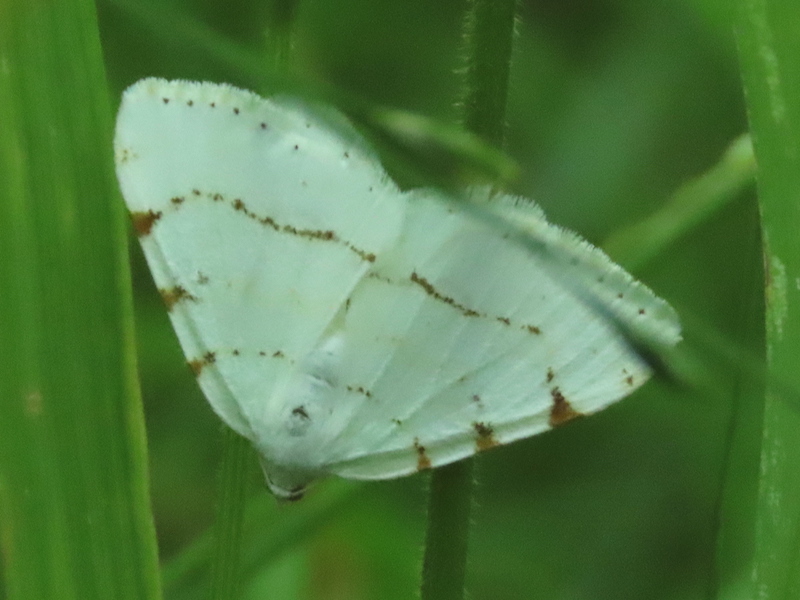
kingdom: Animalia
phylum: Arthropoda
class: Insecta
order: Lepidoptera
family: Geometridae
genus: Macaria
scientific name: Macaria pustularia
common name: Lesser maple spanworm moth
